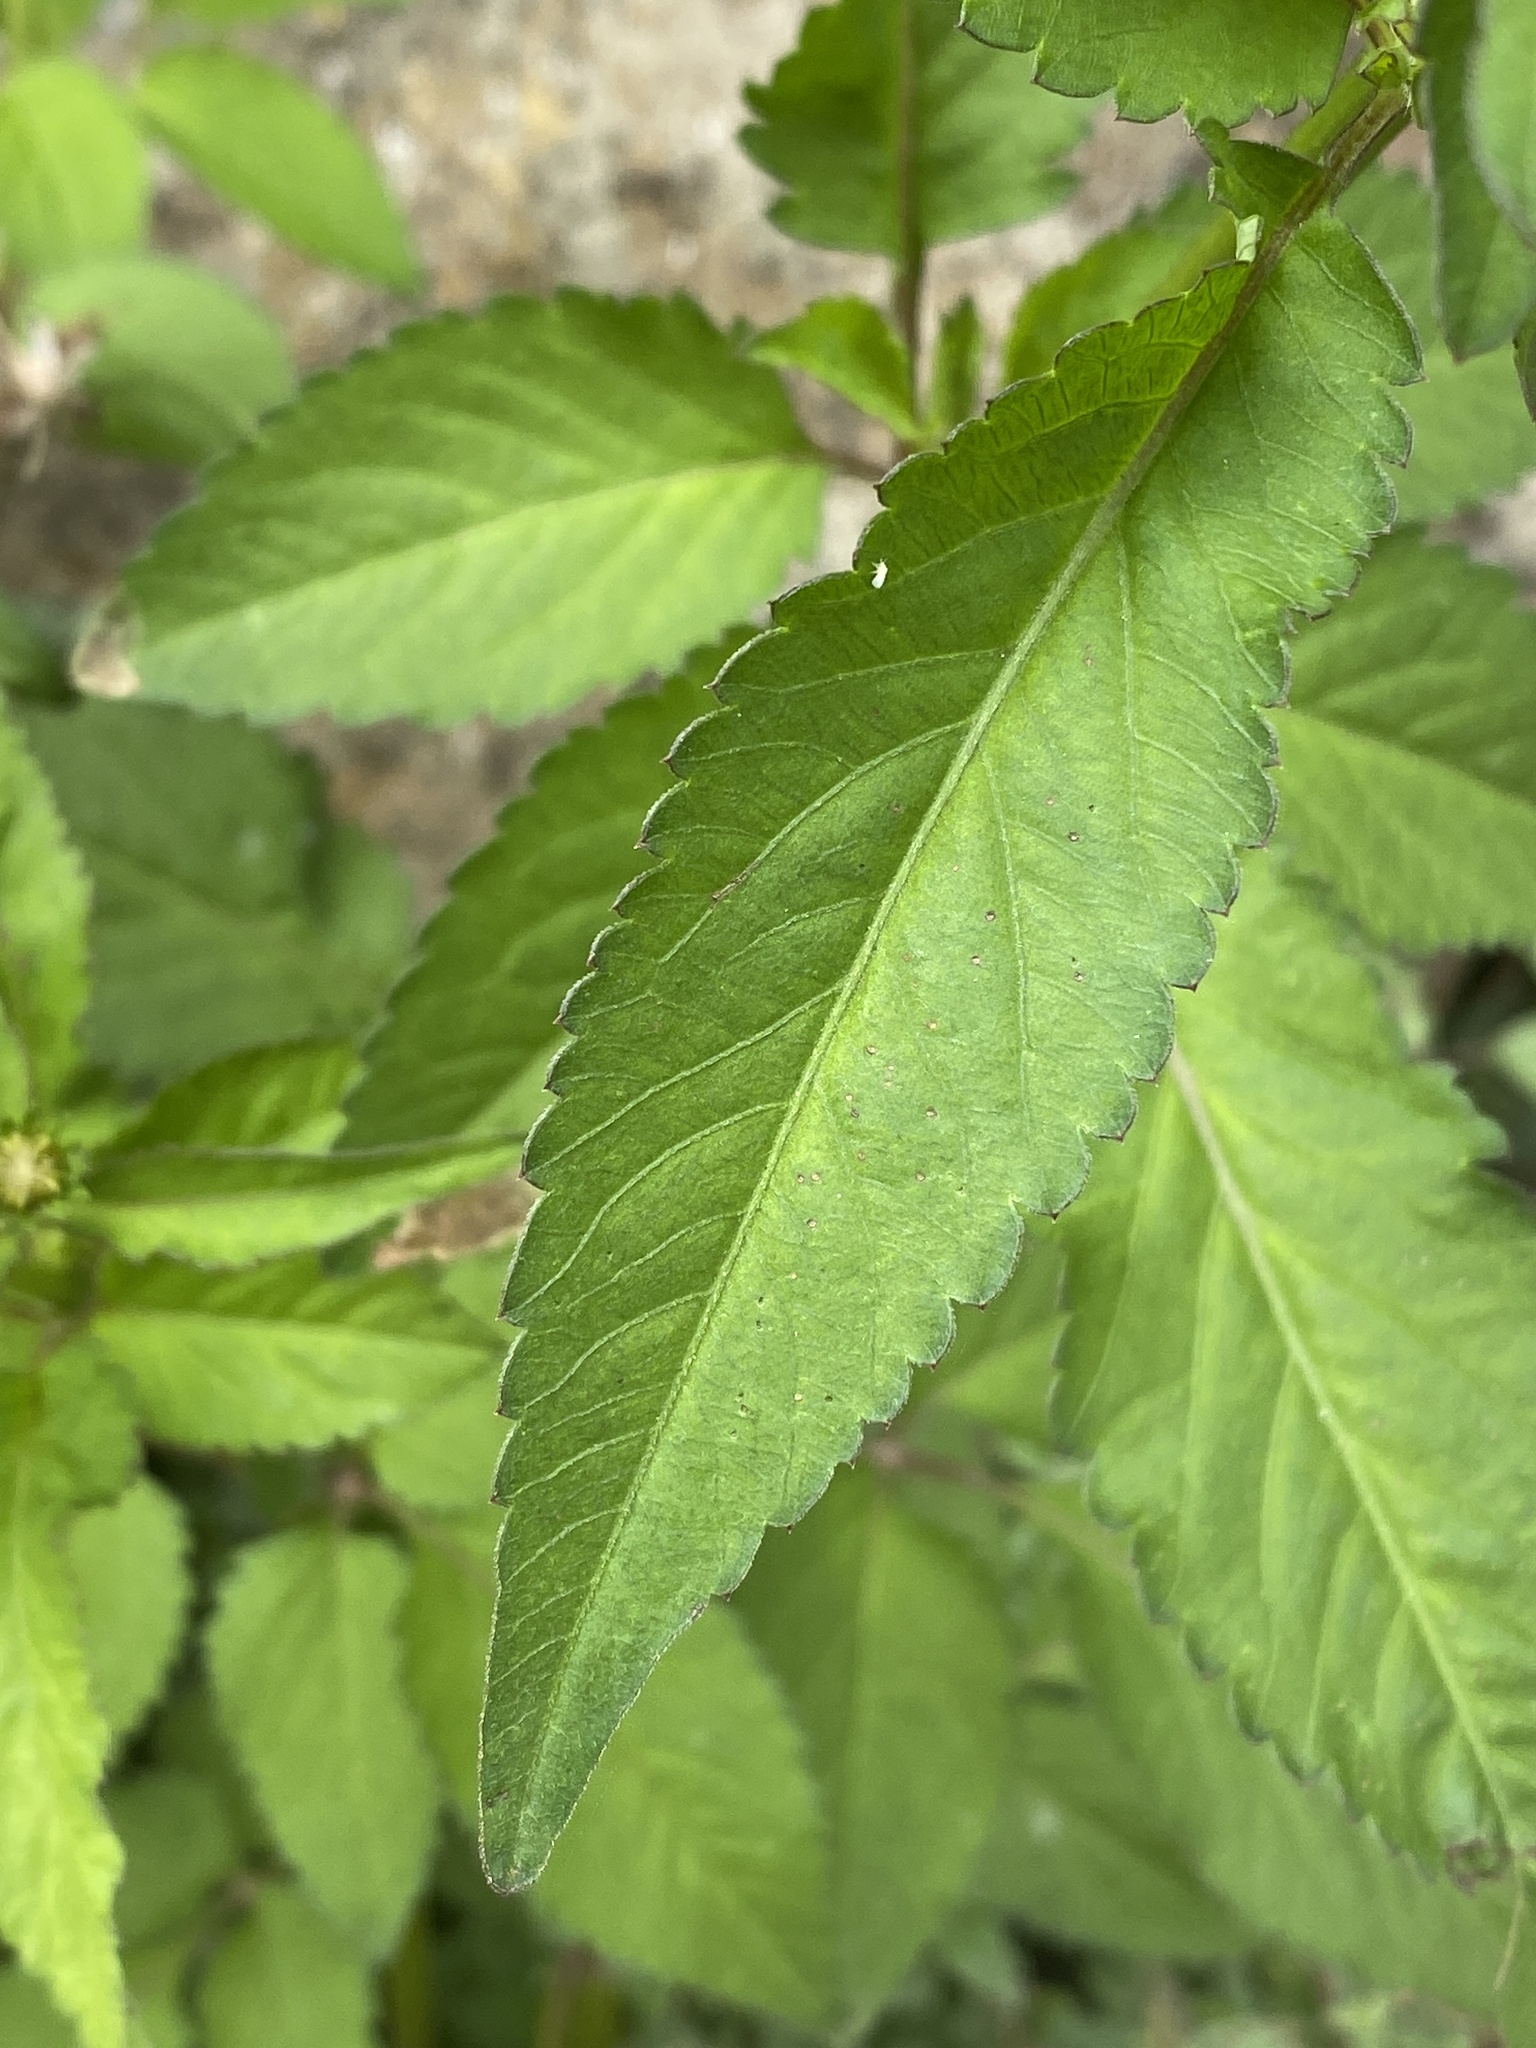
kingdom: Plantae
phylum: Tracheophyta
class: Magnoliopsida
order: Asterales
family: Asteraceae
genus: Bidens
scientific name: Bidens pilosa
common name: Black-jack
